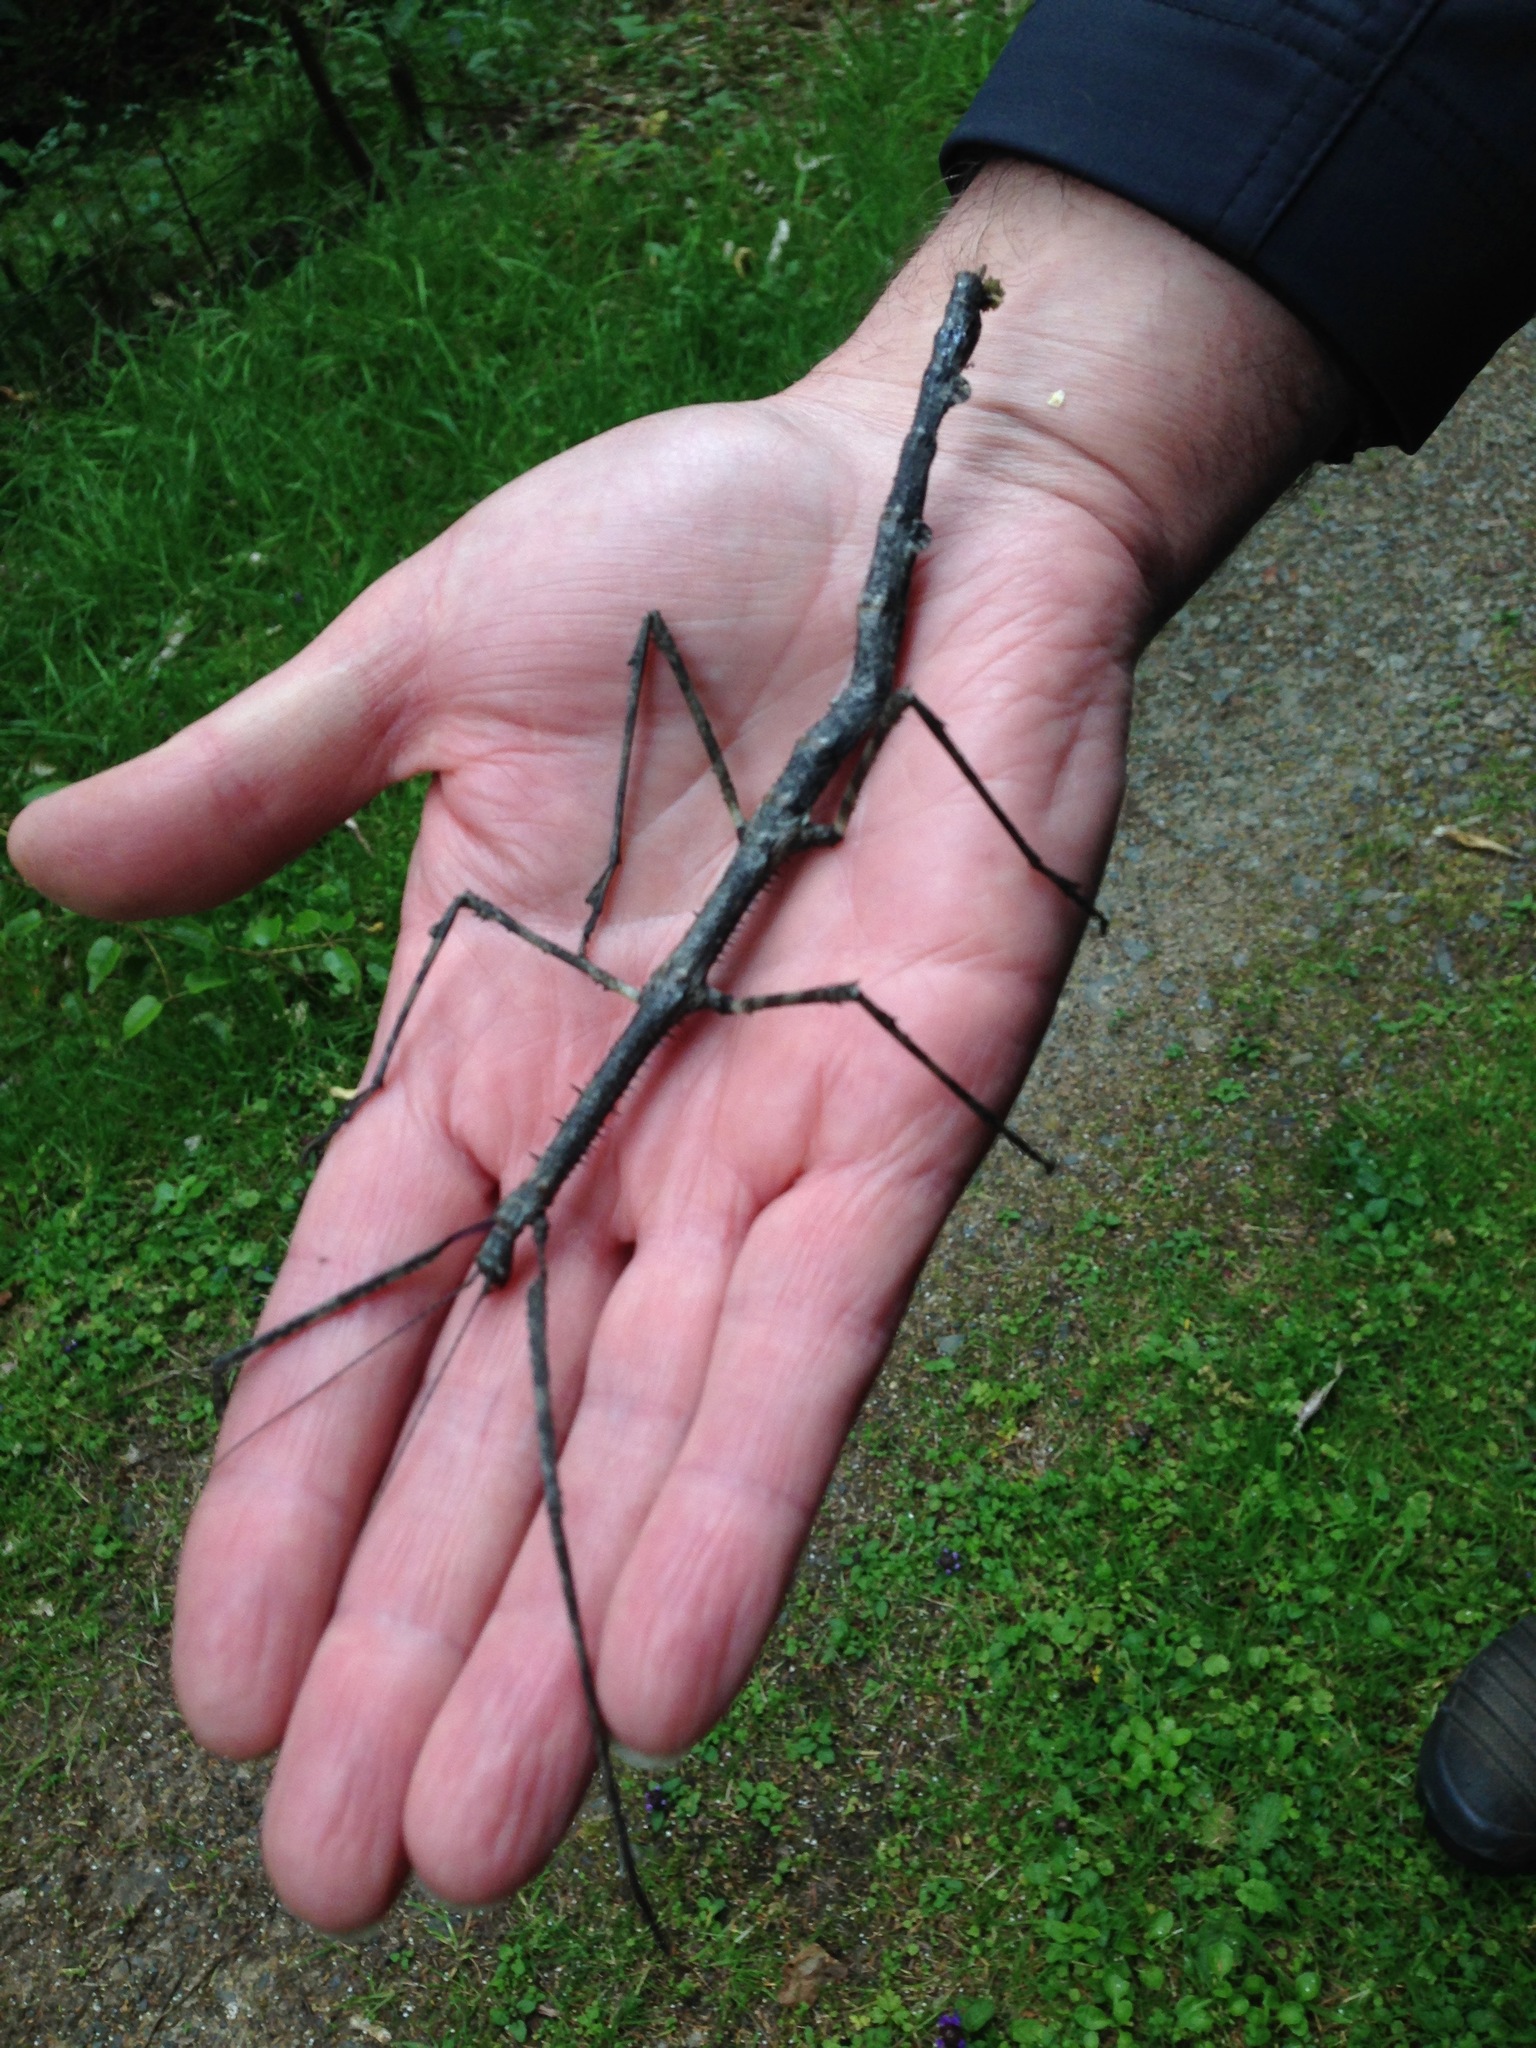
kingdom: Animalia
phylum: Arthropoda
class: Insecta
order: Phasmida
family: Phasmatidae
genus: Argosarchus
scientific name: Argosarchus horridus
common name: Bristly stick insect
